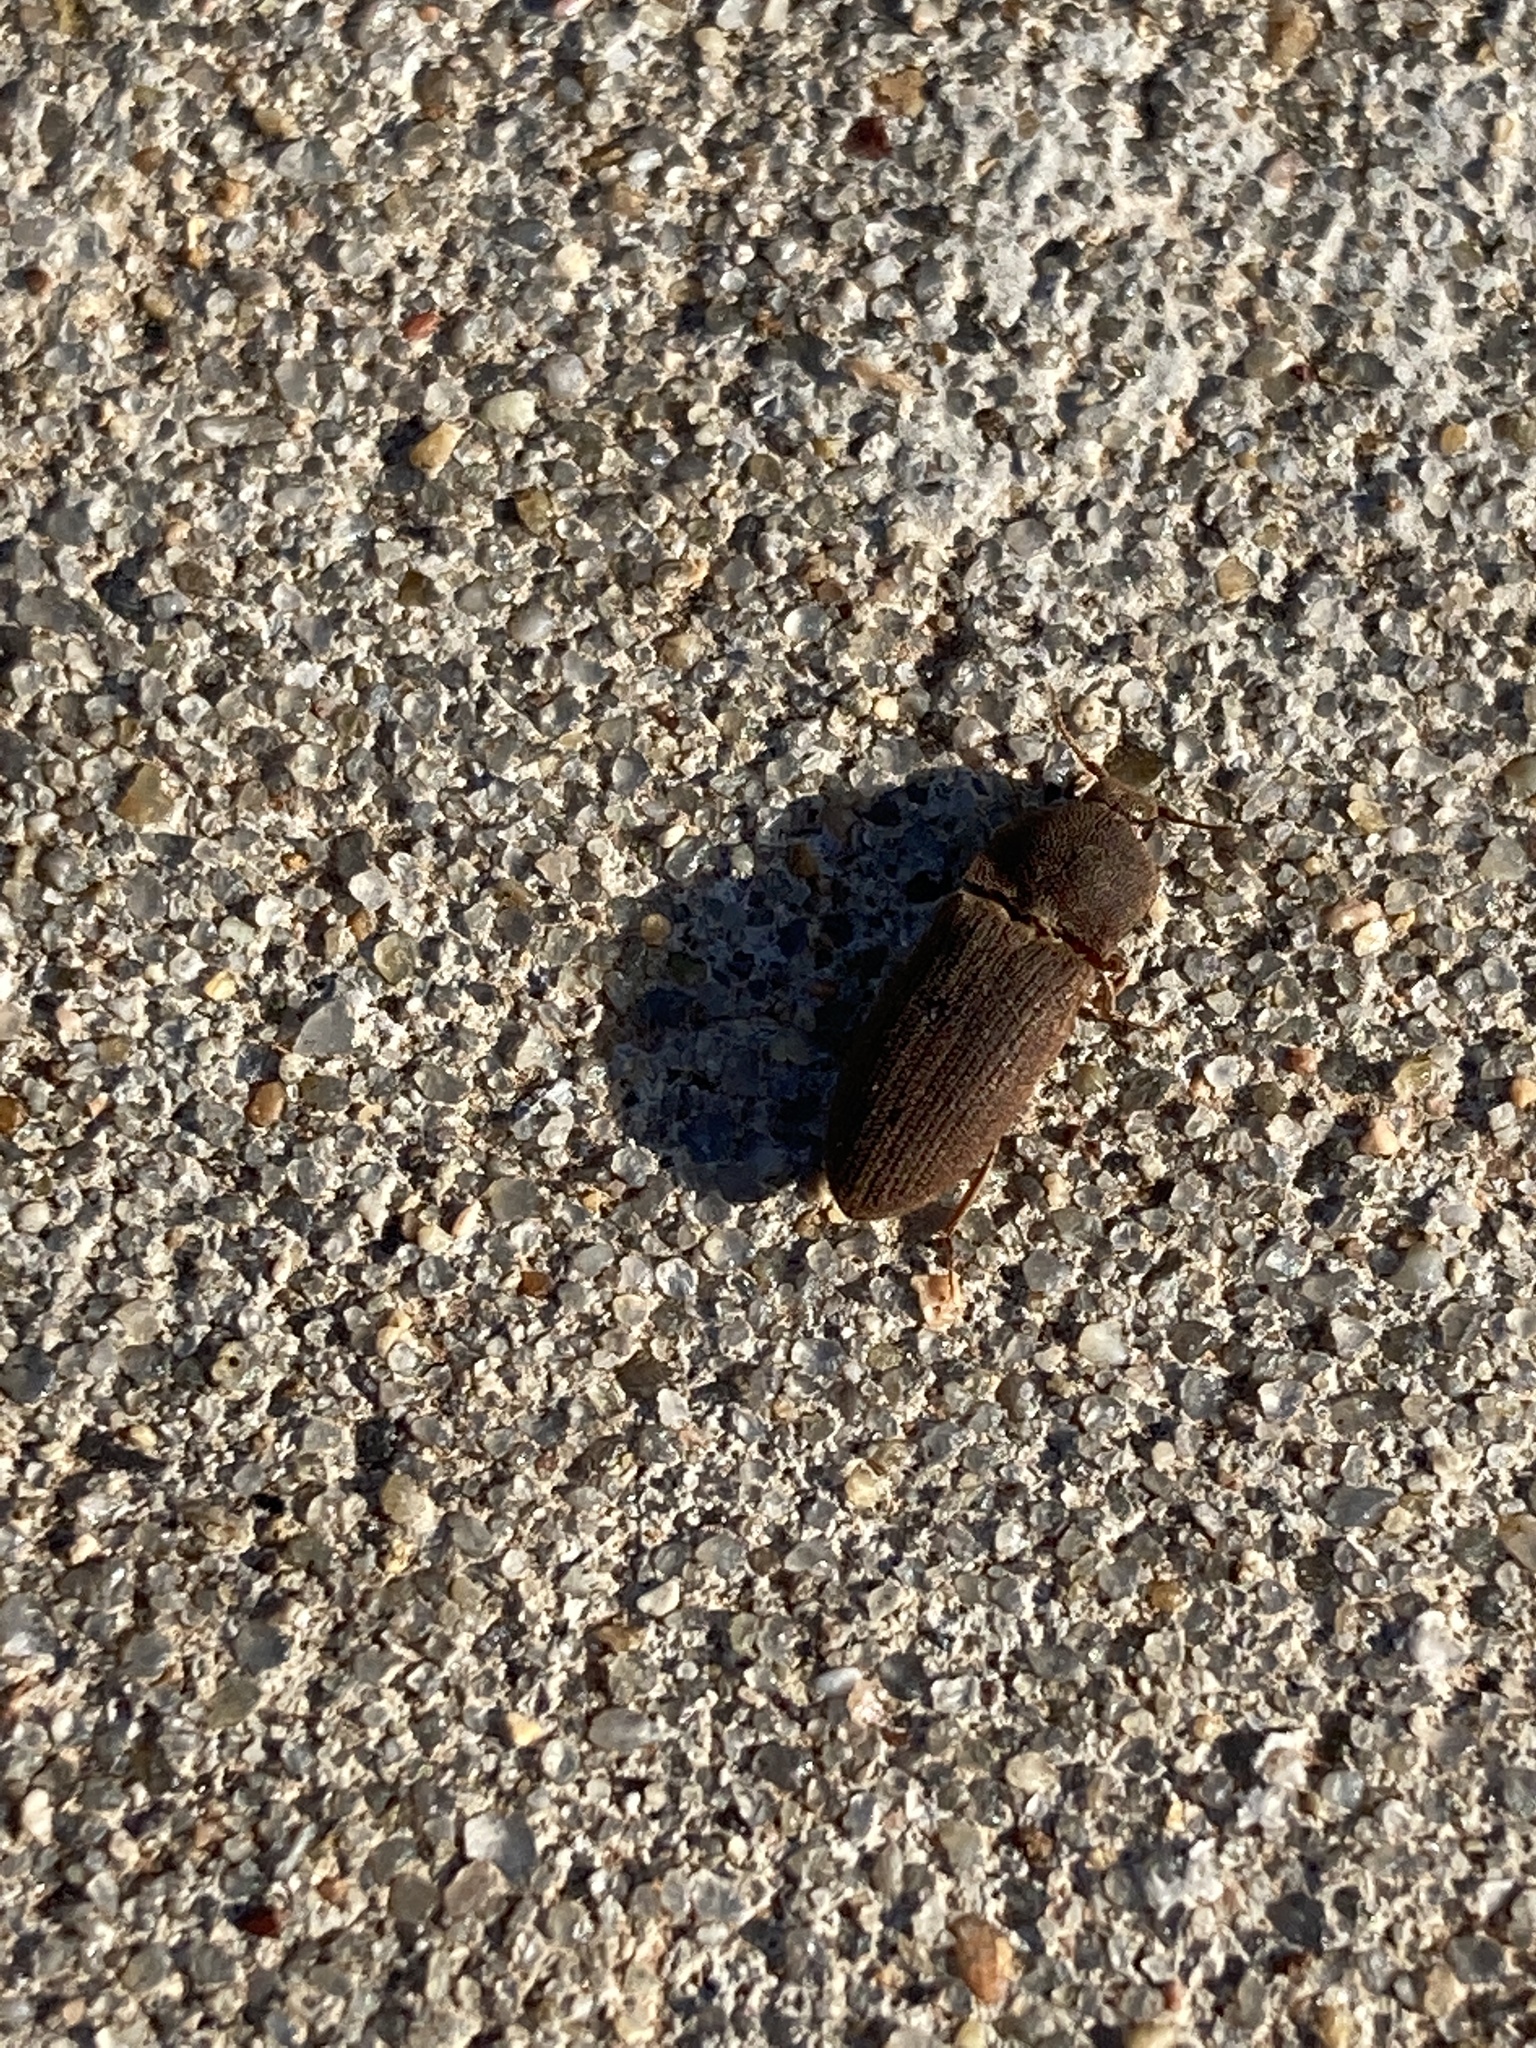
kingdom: Animalia
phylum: Arthropoda
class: Insecta
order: Coleoptera
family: Elateridae
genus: Agrypnus
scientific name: Agrypnus rectangularis
